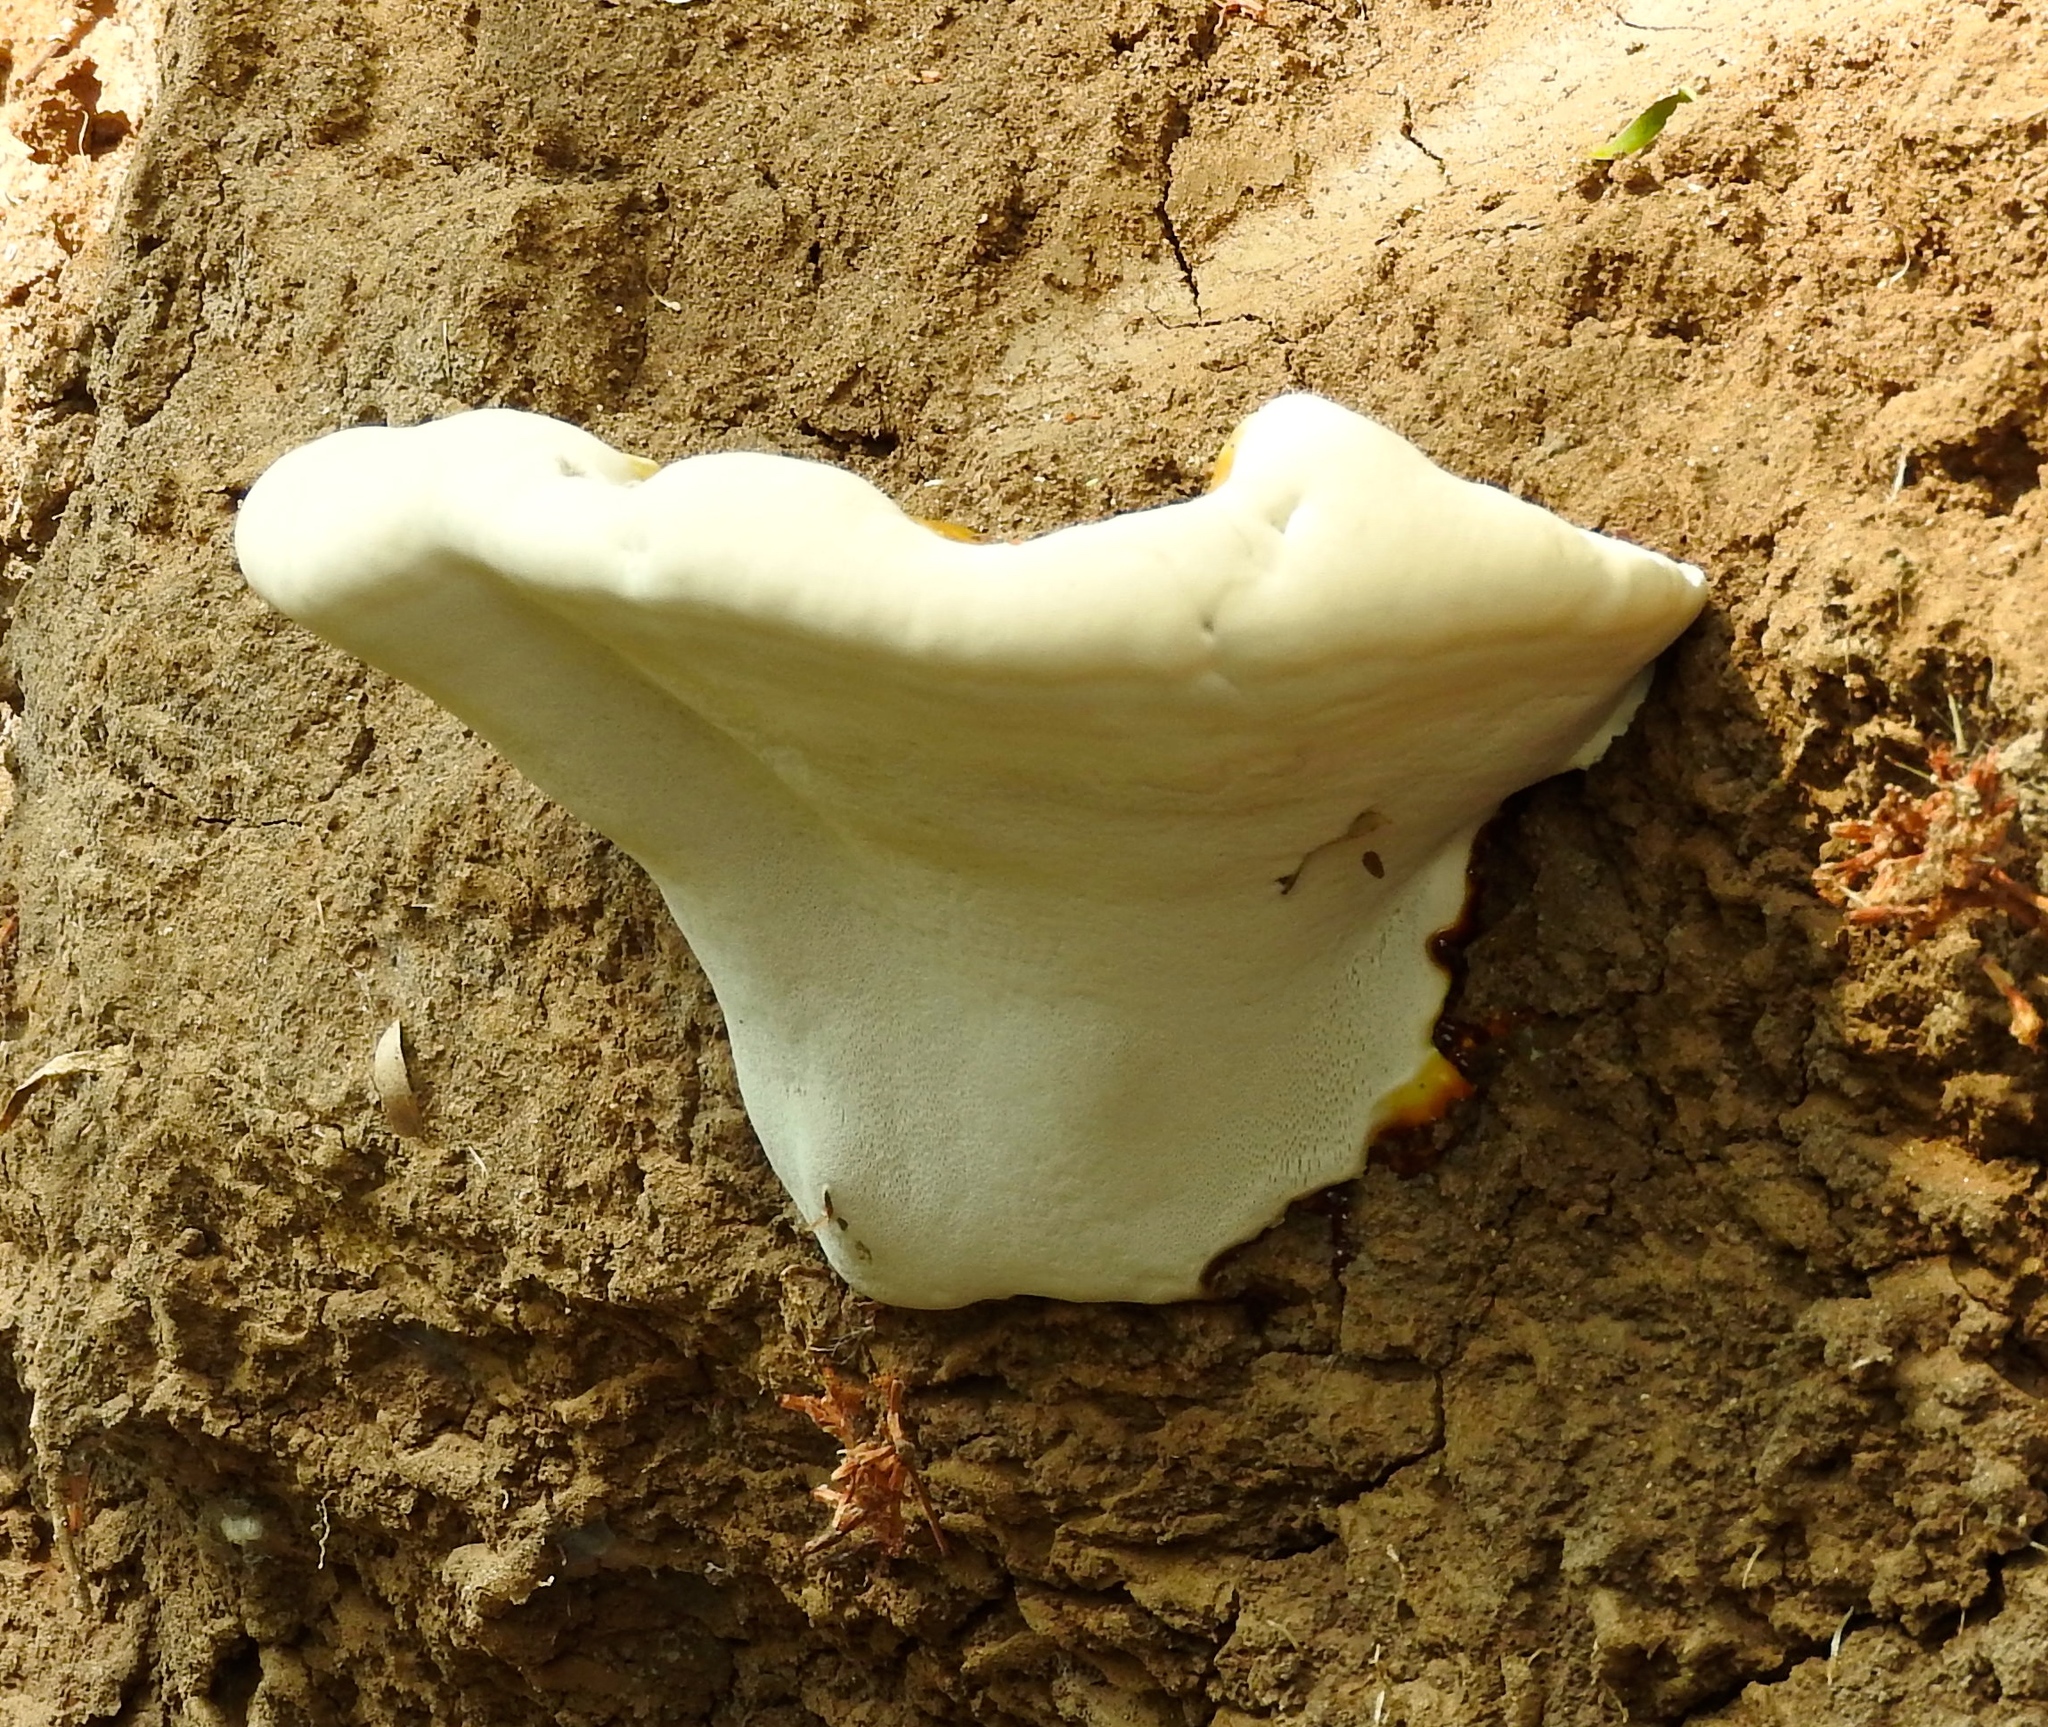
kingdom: Fungi
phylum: Basidiomycota
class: Agaricomycetes
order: Polyporales
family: Polyporaceae
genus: Ganoderma
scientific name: Ganoderma
